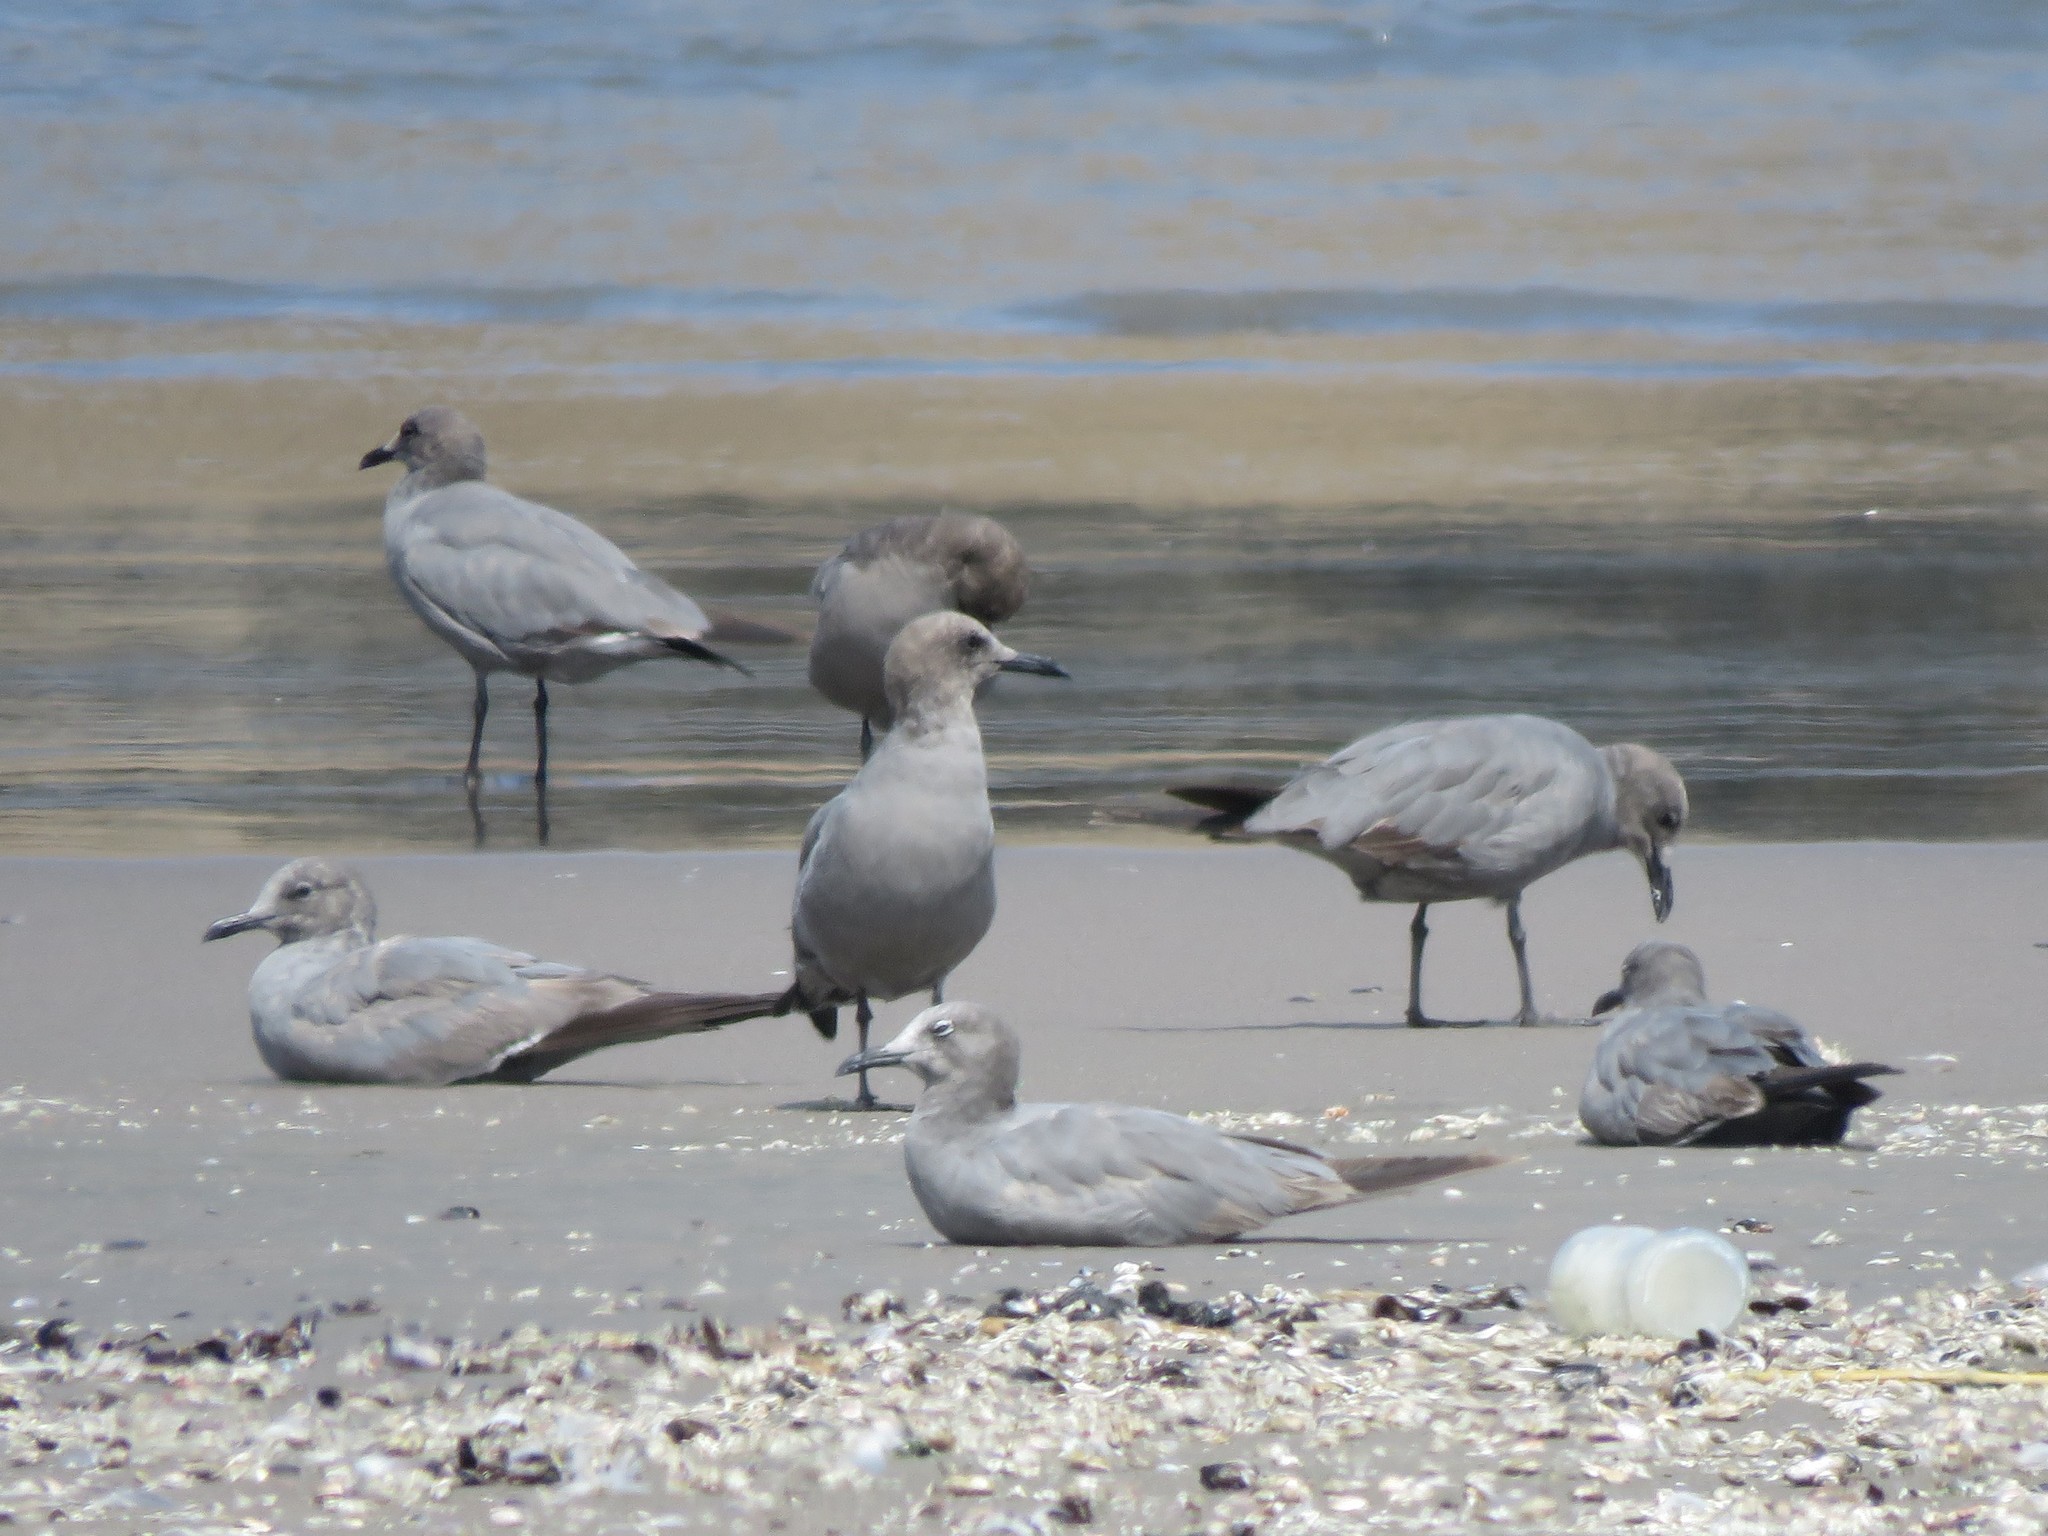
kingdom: Animalia
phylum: Chordata
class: Aves
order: Charadriiformes
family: Laridae
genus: Leucophaeus
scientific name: Leucophaeus modestus
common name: Gray gull
